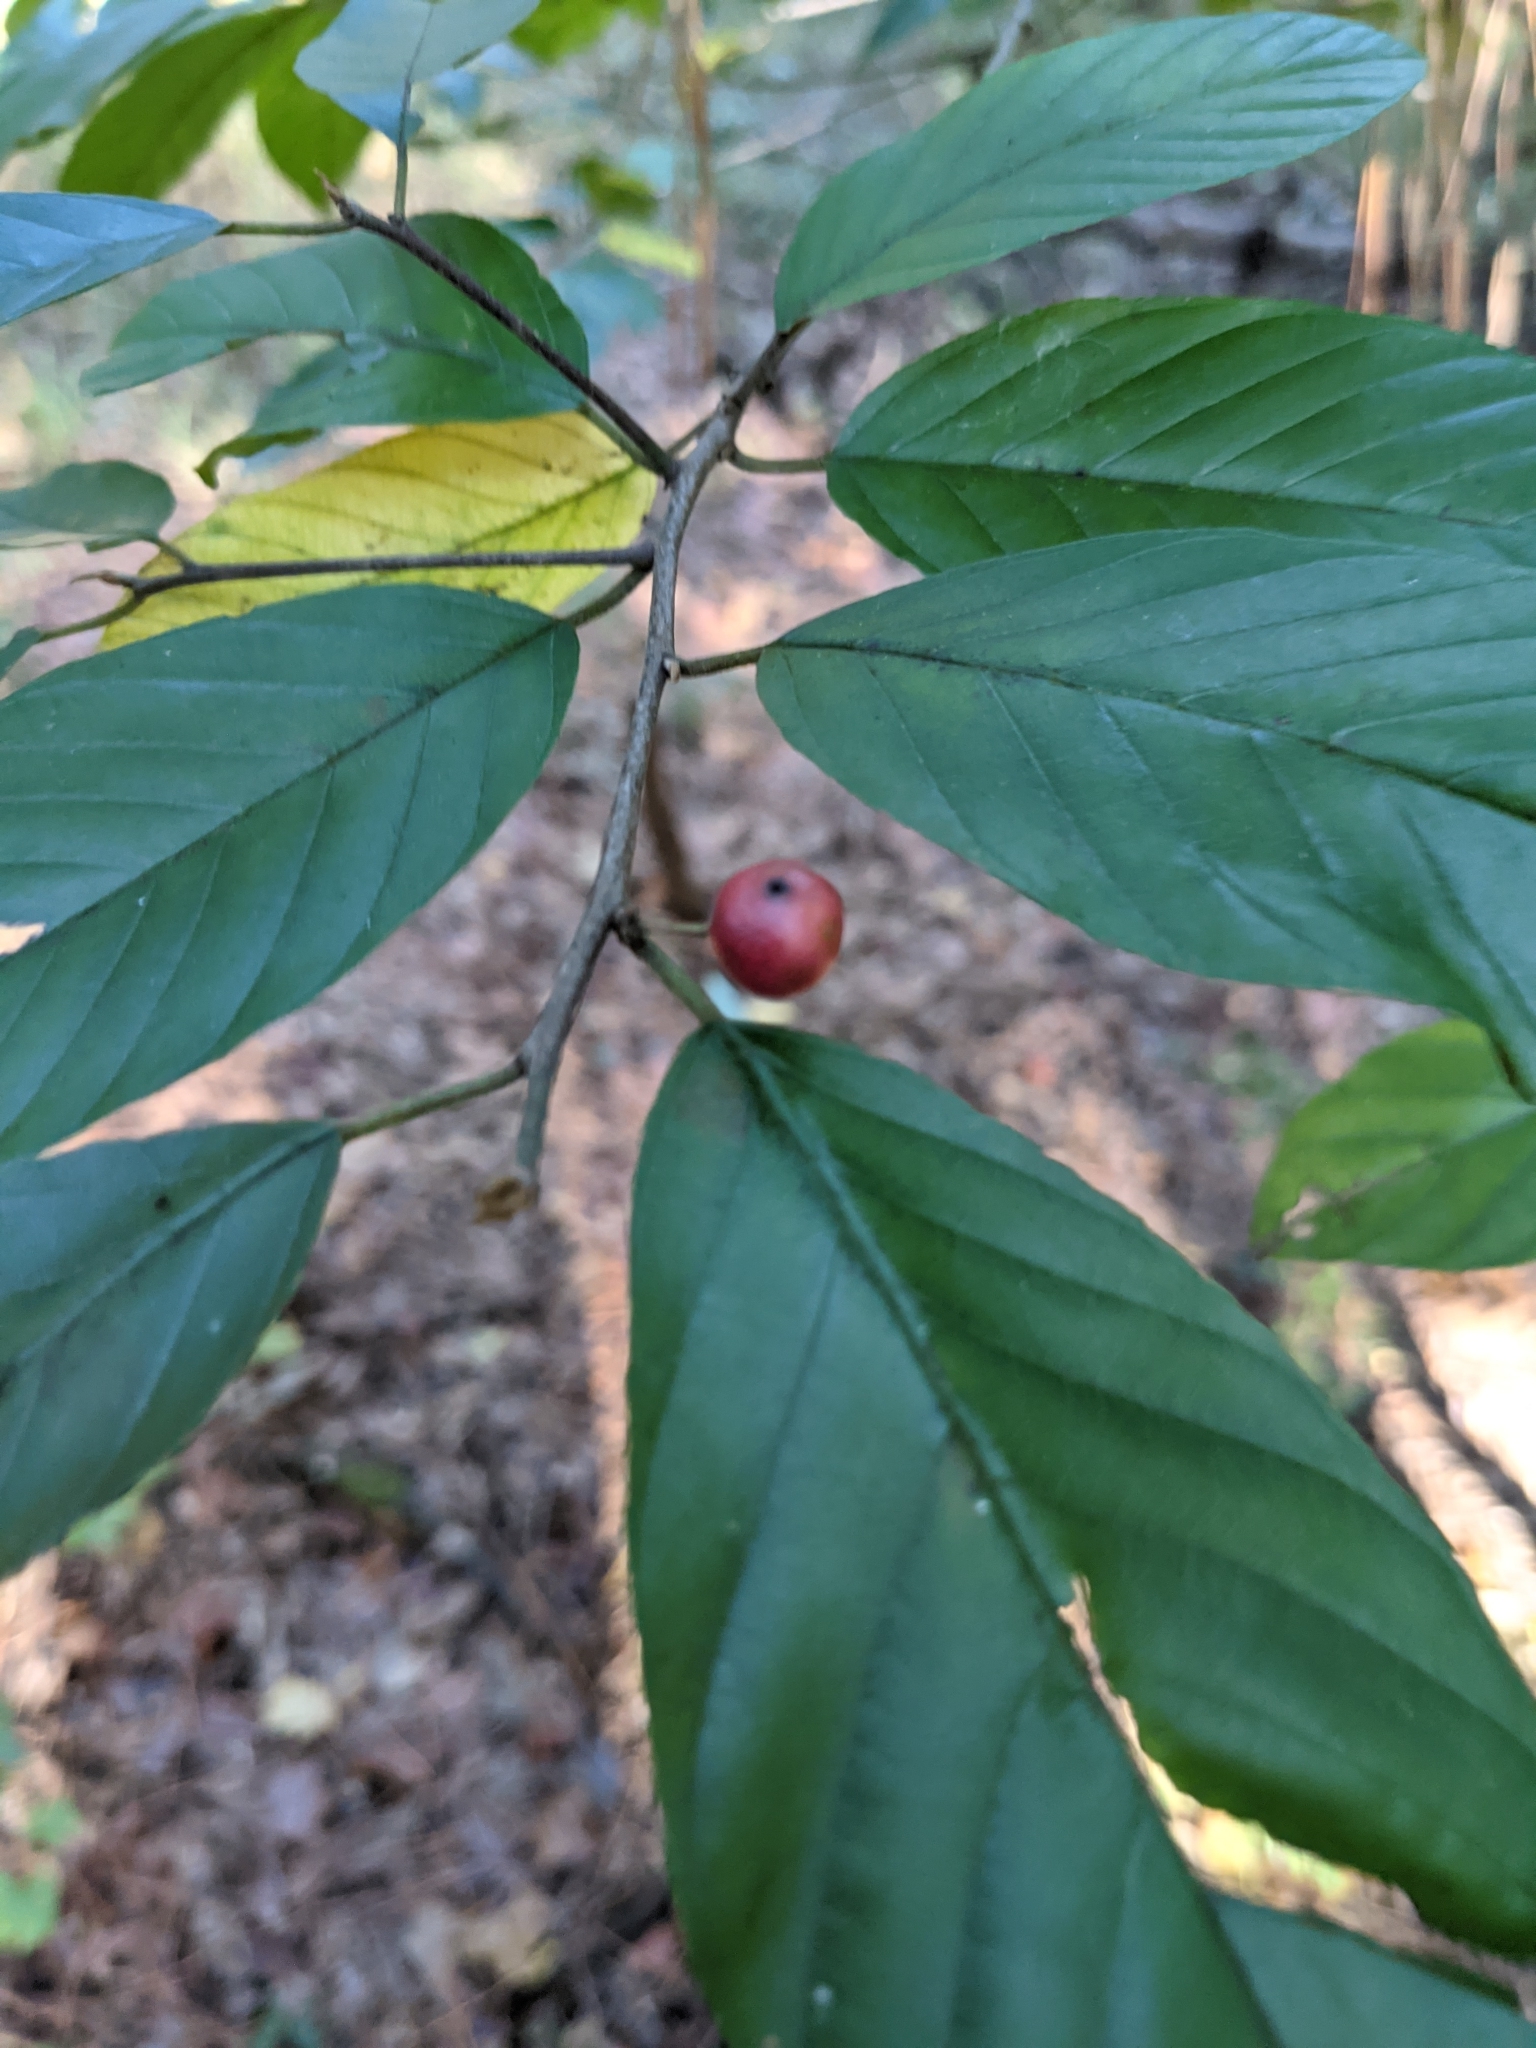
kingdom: Plantae
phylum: Tracheophyta
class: Magnoliopsida
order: Rosales
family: Rhamnaceae
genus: Frangula
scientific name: Frangula caroliniana
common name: Carolina buckthorn
